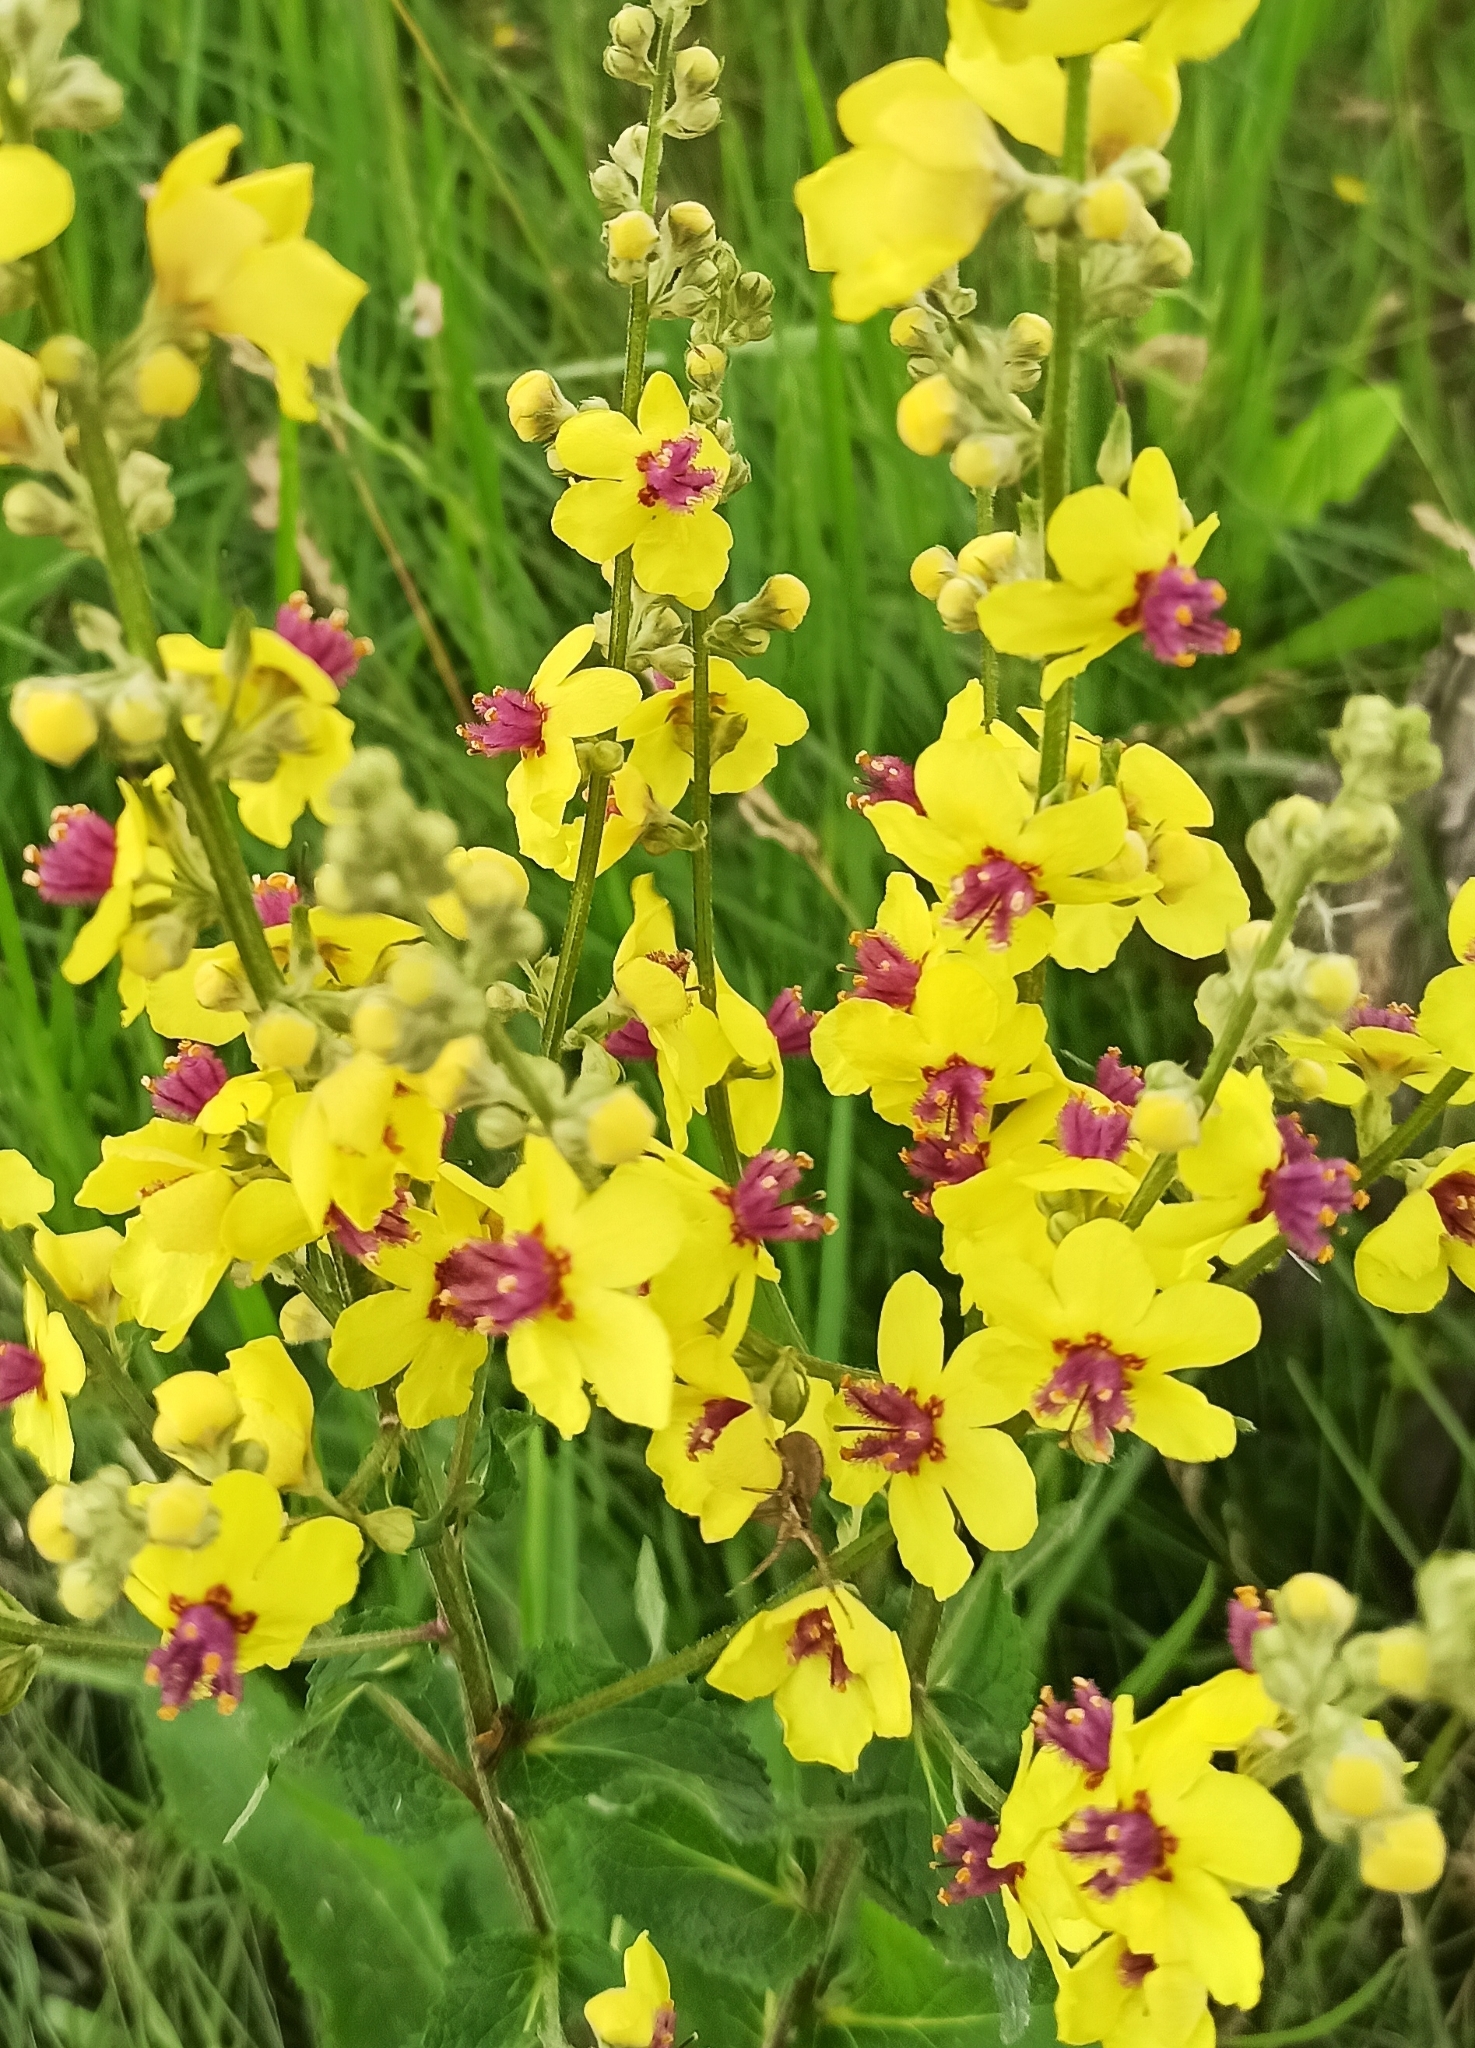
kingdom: Plantae
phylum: Tracheophyta
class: Magnoliopsida
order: Lamiales
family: Scrophulariaceae
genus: Verbascum
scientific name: Verbascum chaixii
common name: Nettle-leaved mullein
